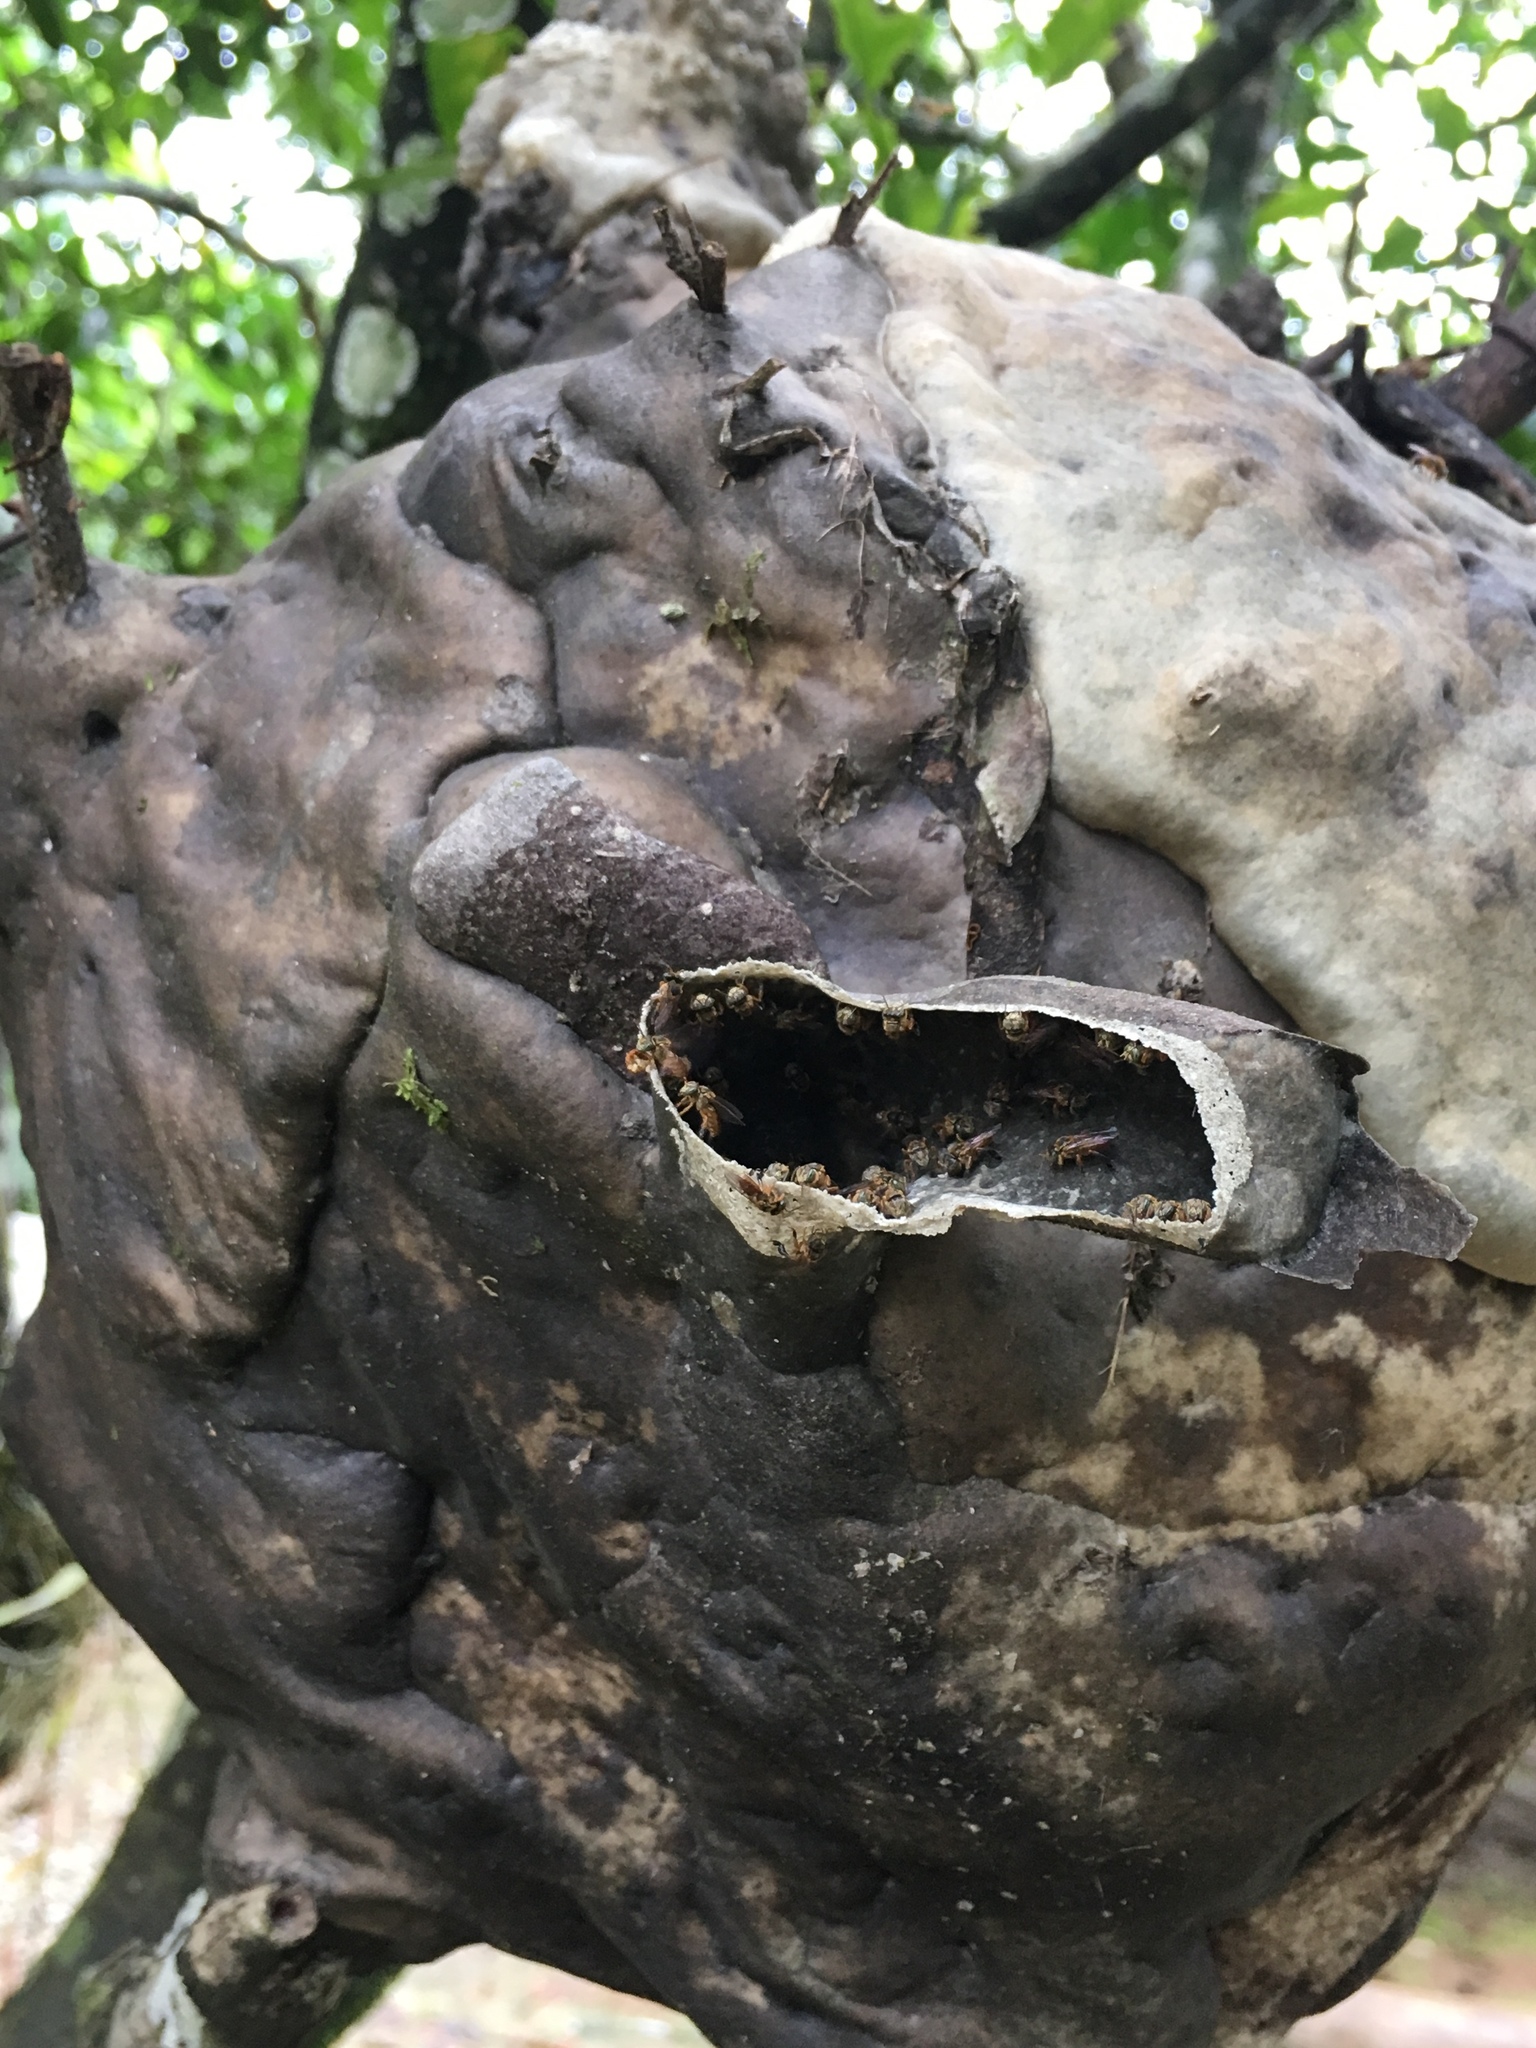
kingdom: Animalia
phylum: Arthropoda
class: Insecta
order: Hymenoptera
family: Apidae
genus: Tetragonisca
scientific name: Tetragonisca weyrauchi
